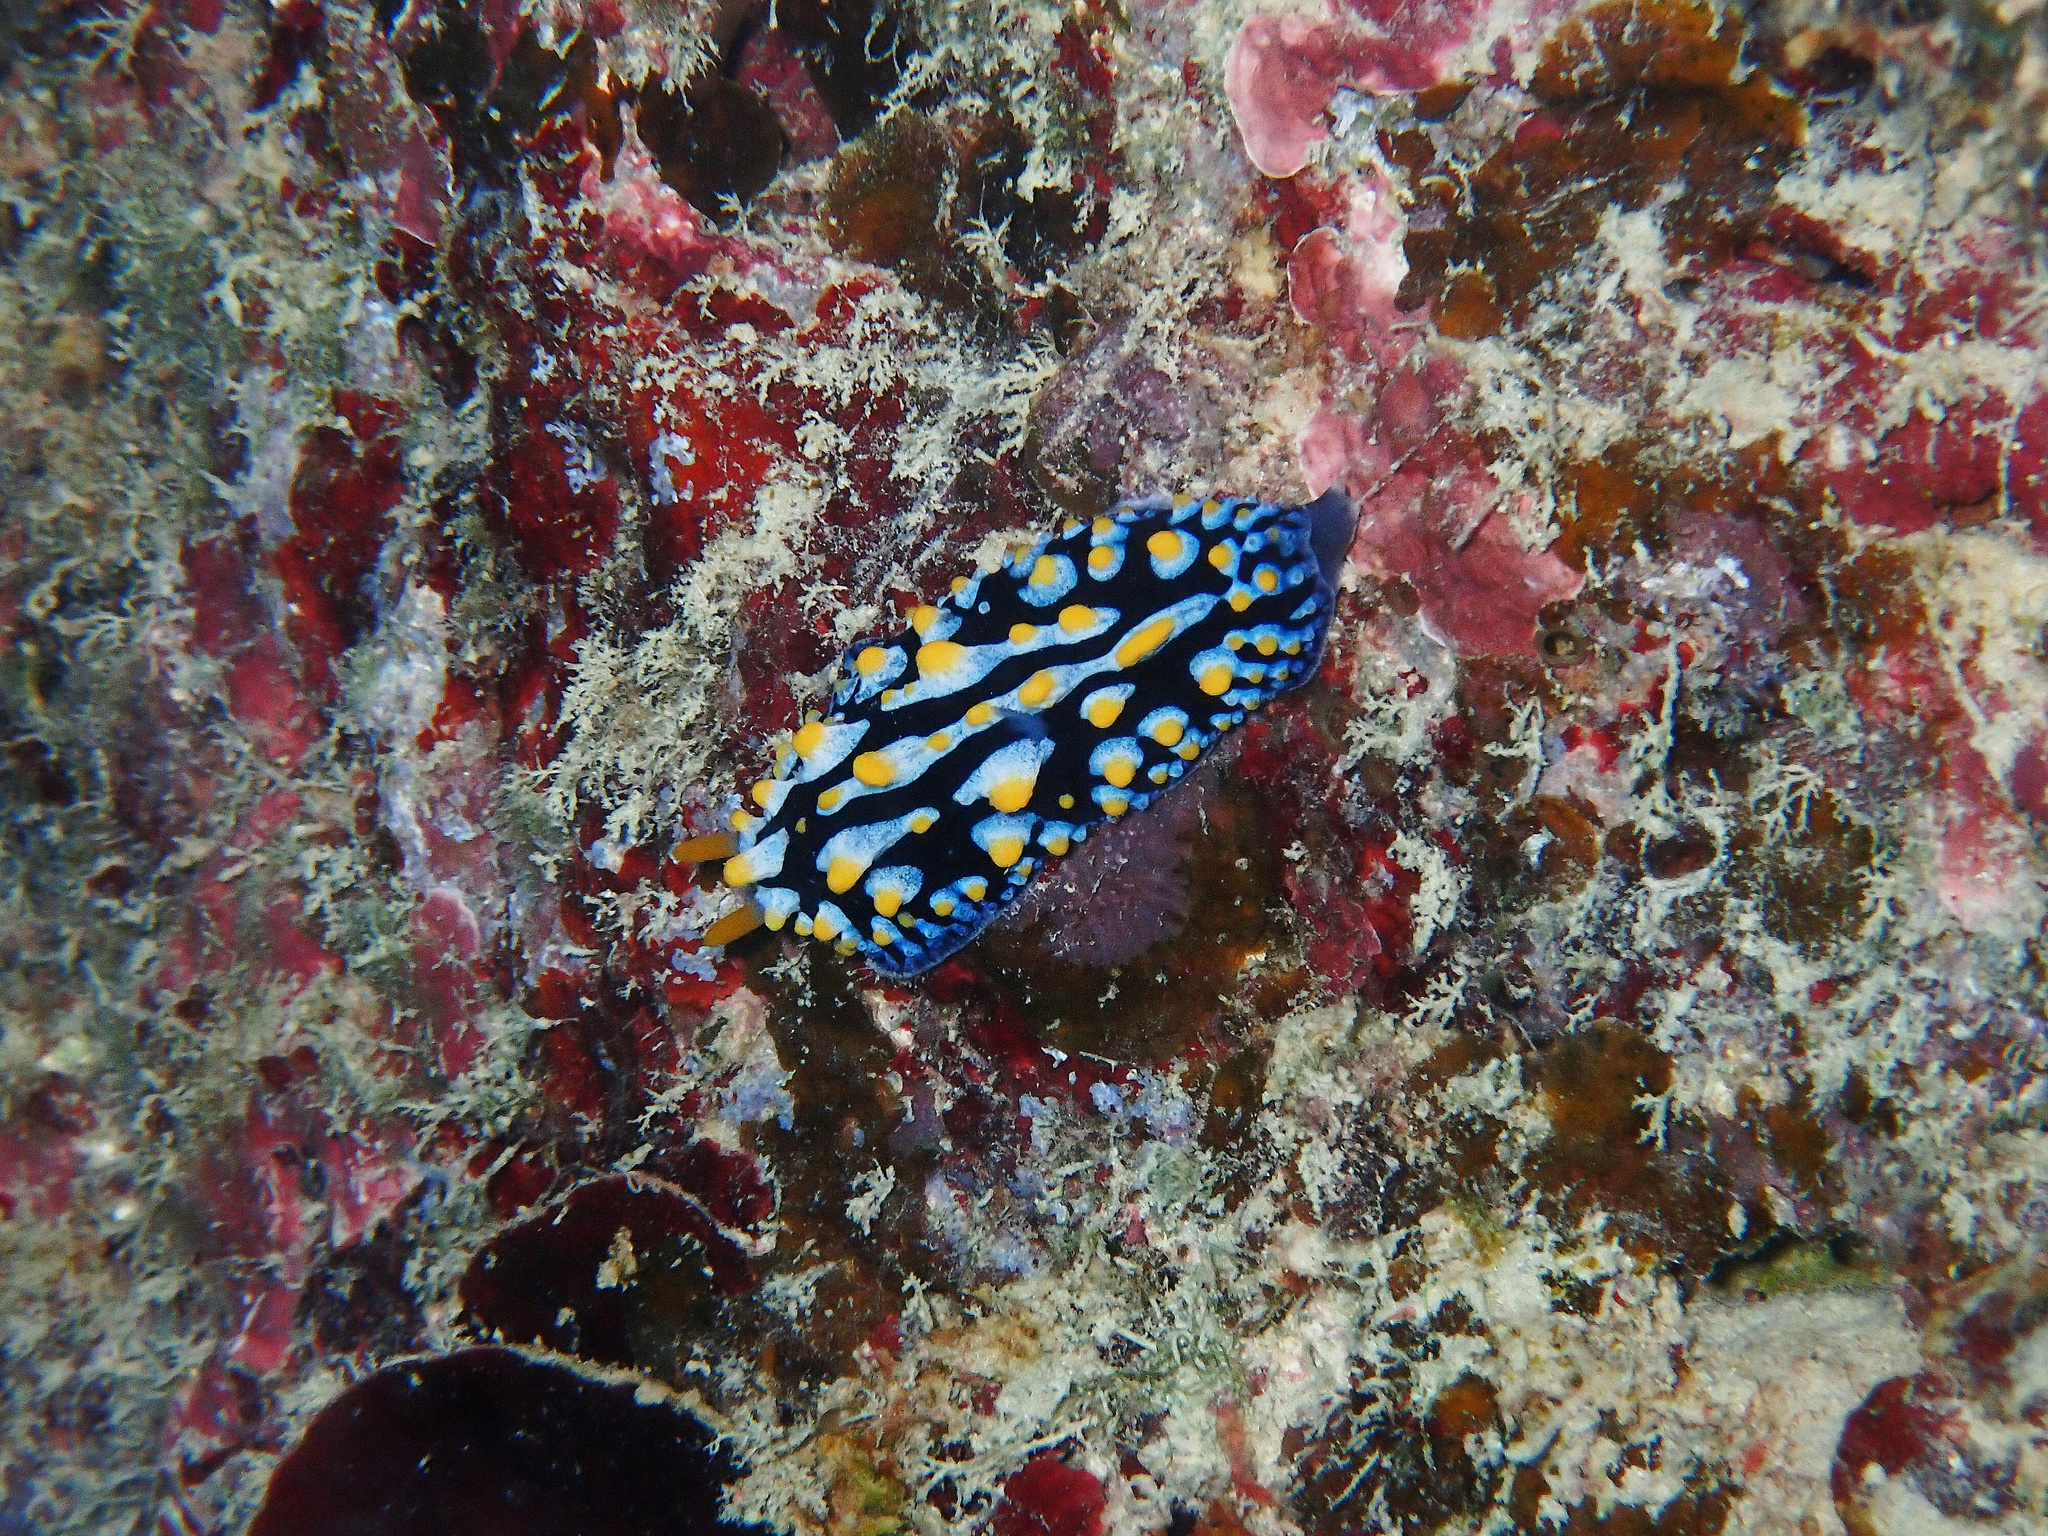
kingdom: Animalia
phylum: Mollusca
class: Gastropoda
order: Nudibranchia
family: Phyllidiidae
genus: Phyllidia
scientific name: Phyllidia varicosa
